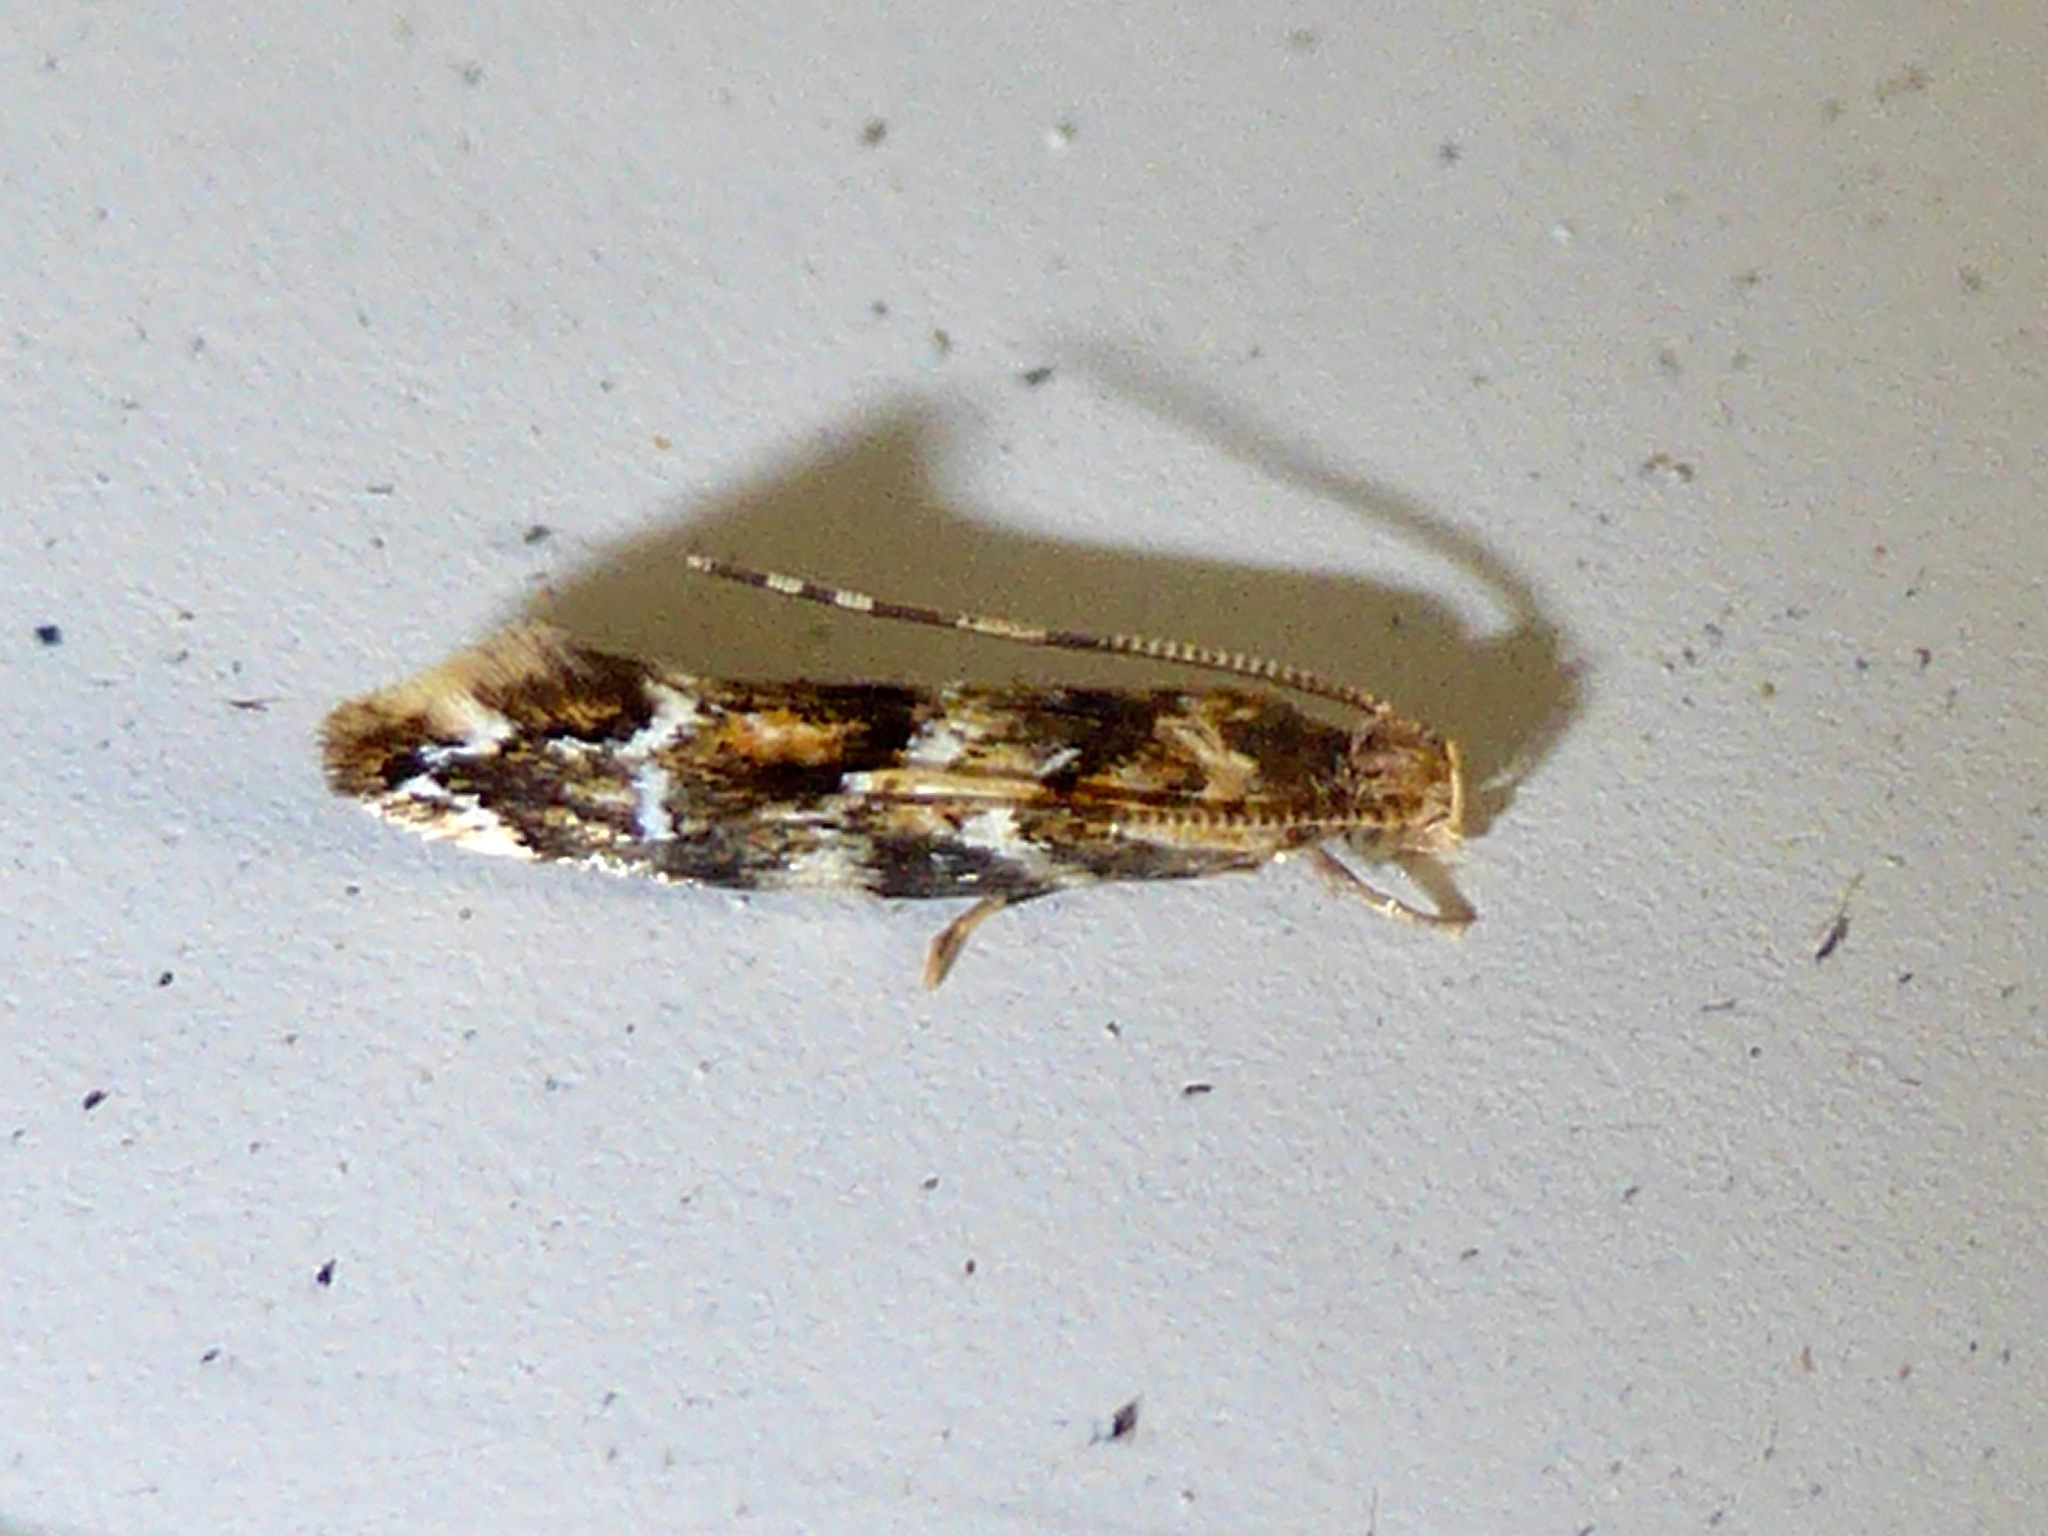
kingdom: Animalia
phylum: Arthropoda
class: Insecta
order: Lepidoptera
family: Dryadaulidae
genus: Dryadaula
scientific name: Dryadaula pactolia
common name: Cellar clothes
